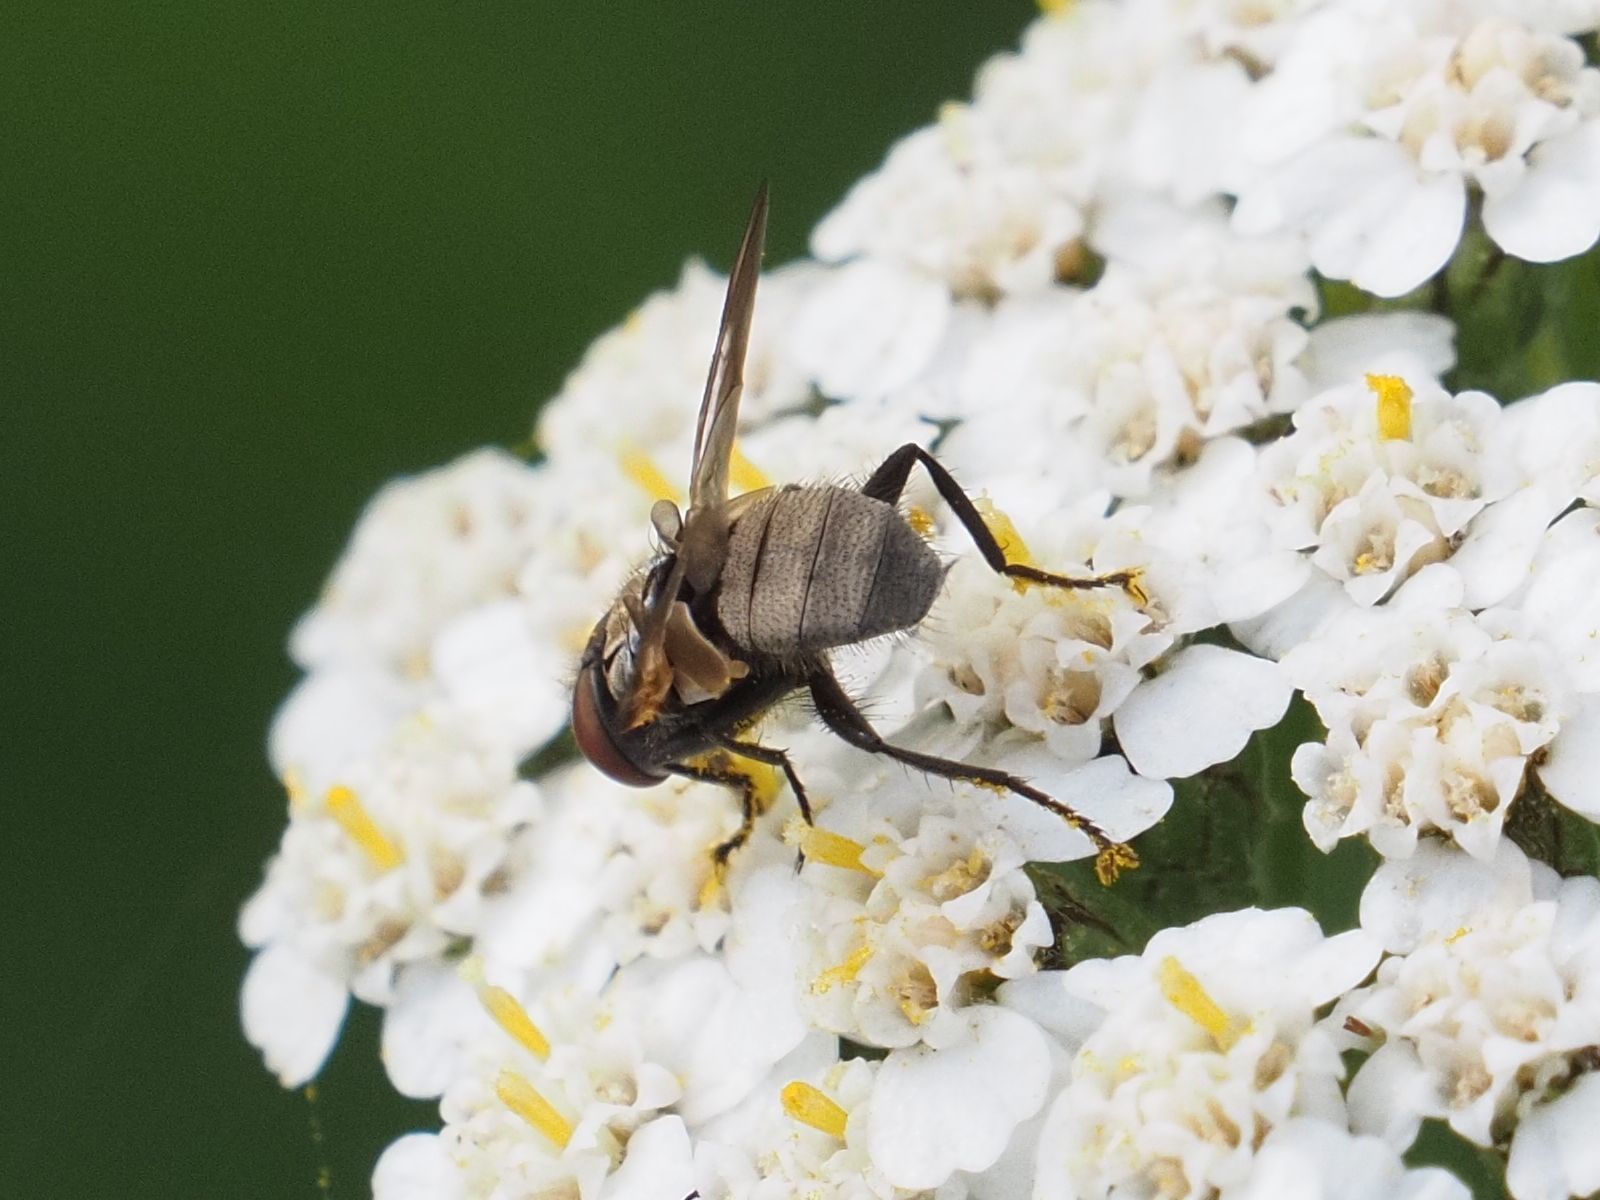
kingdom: Animalia
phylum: Arthropoda
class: Insecta
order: Diptera
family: Tachinidae
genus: Phasia
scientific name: Phasia obesa
